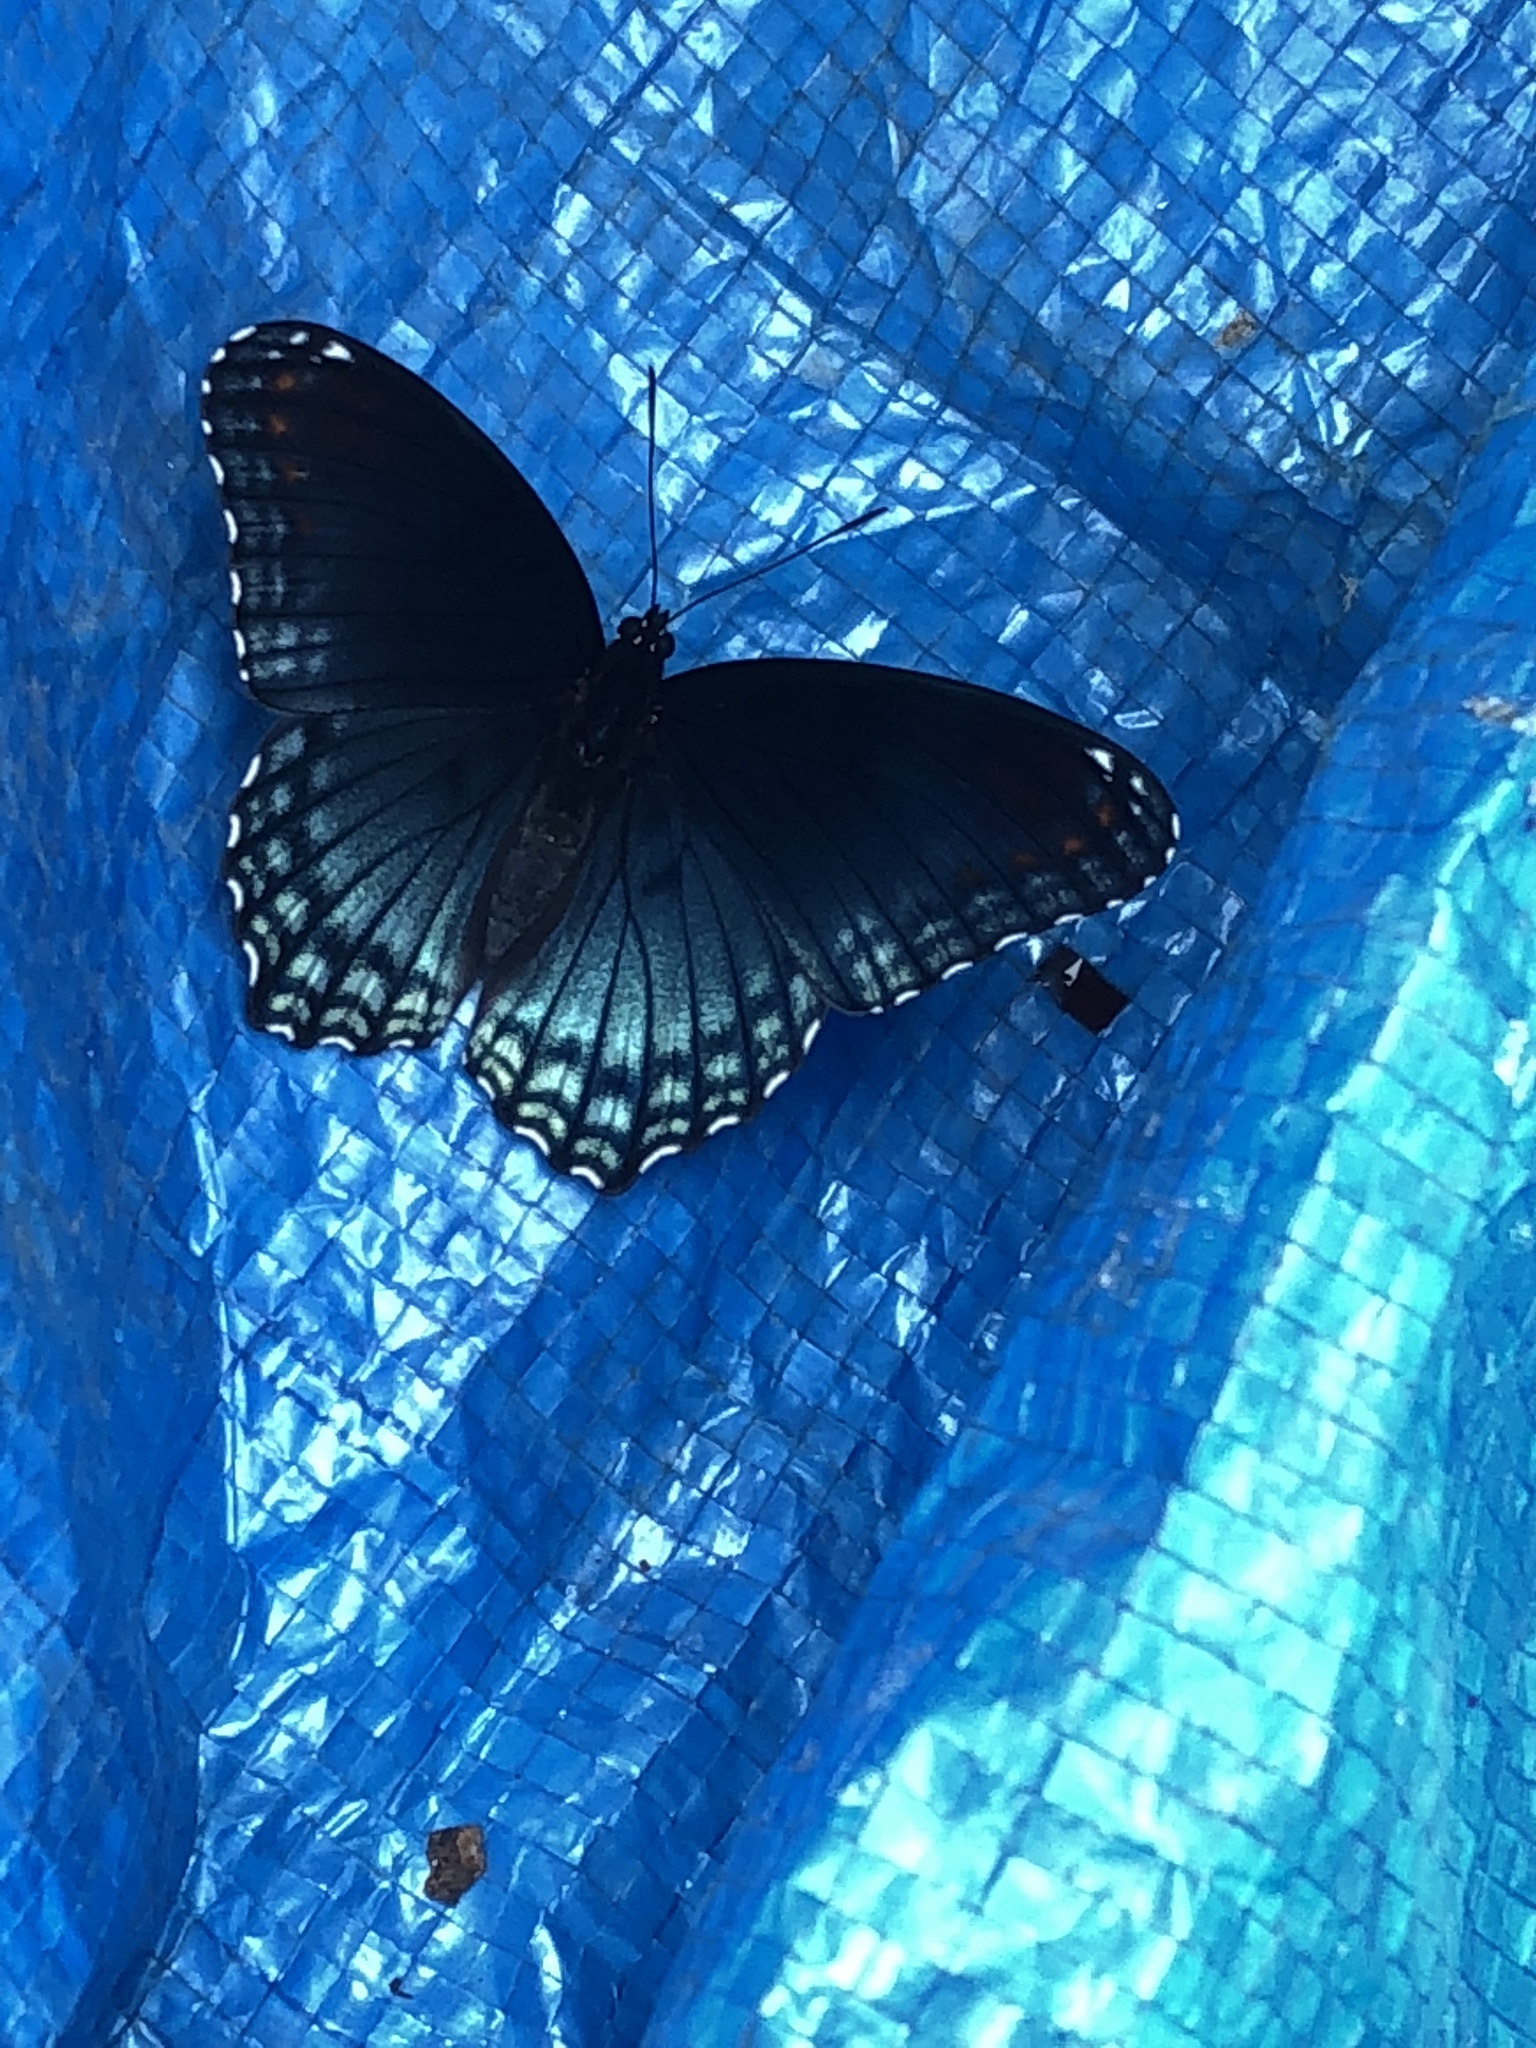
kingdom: Animalia
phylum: Arthropoda
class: Insecta
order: Lepidoptera
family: Nymphalidae
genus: Limenitis
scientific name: Limenitis arthemis
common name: Red-spotted admiral
